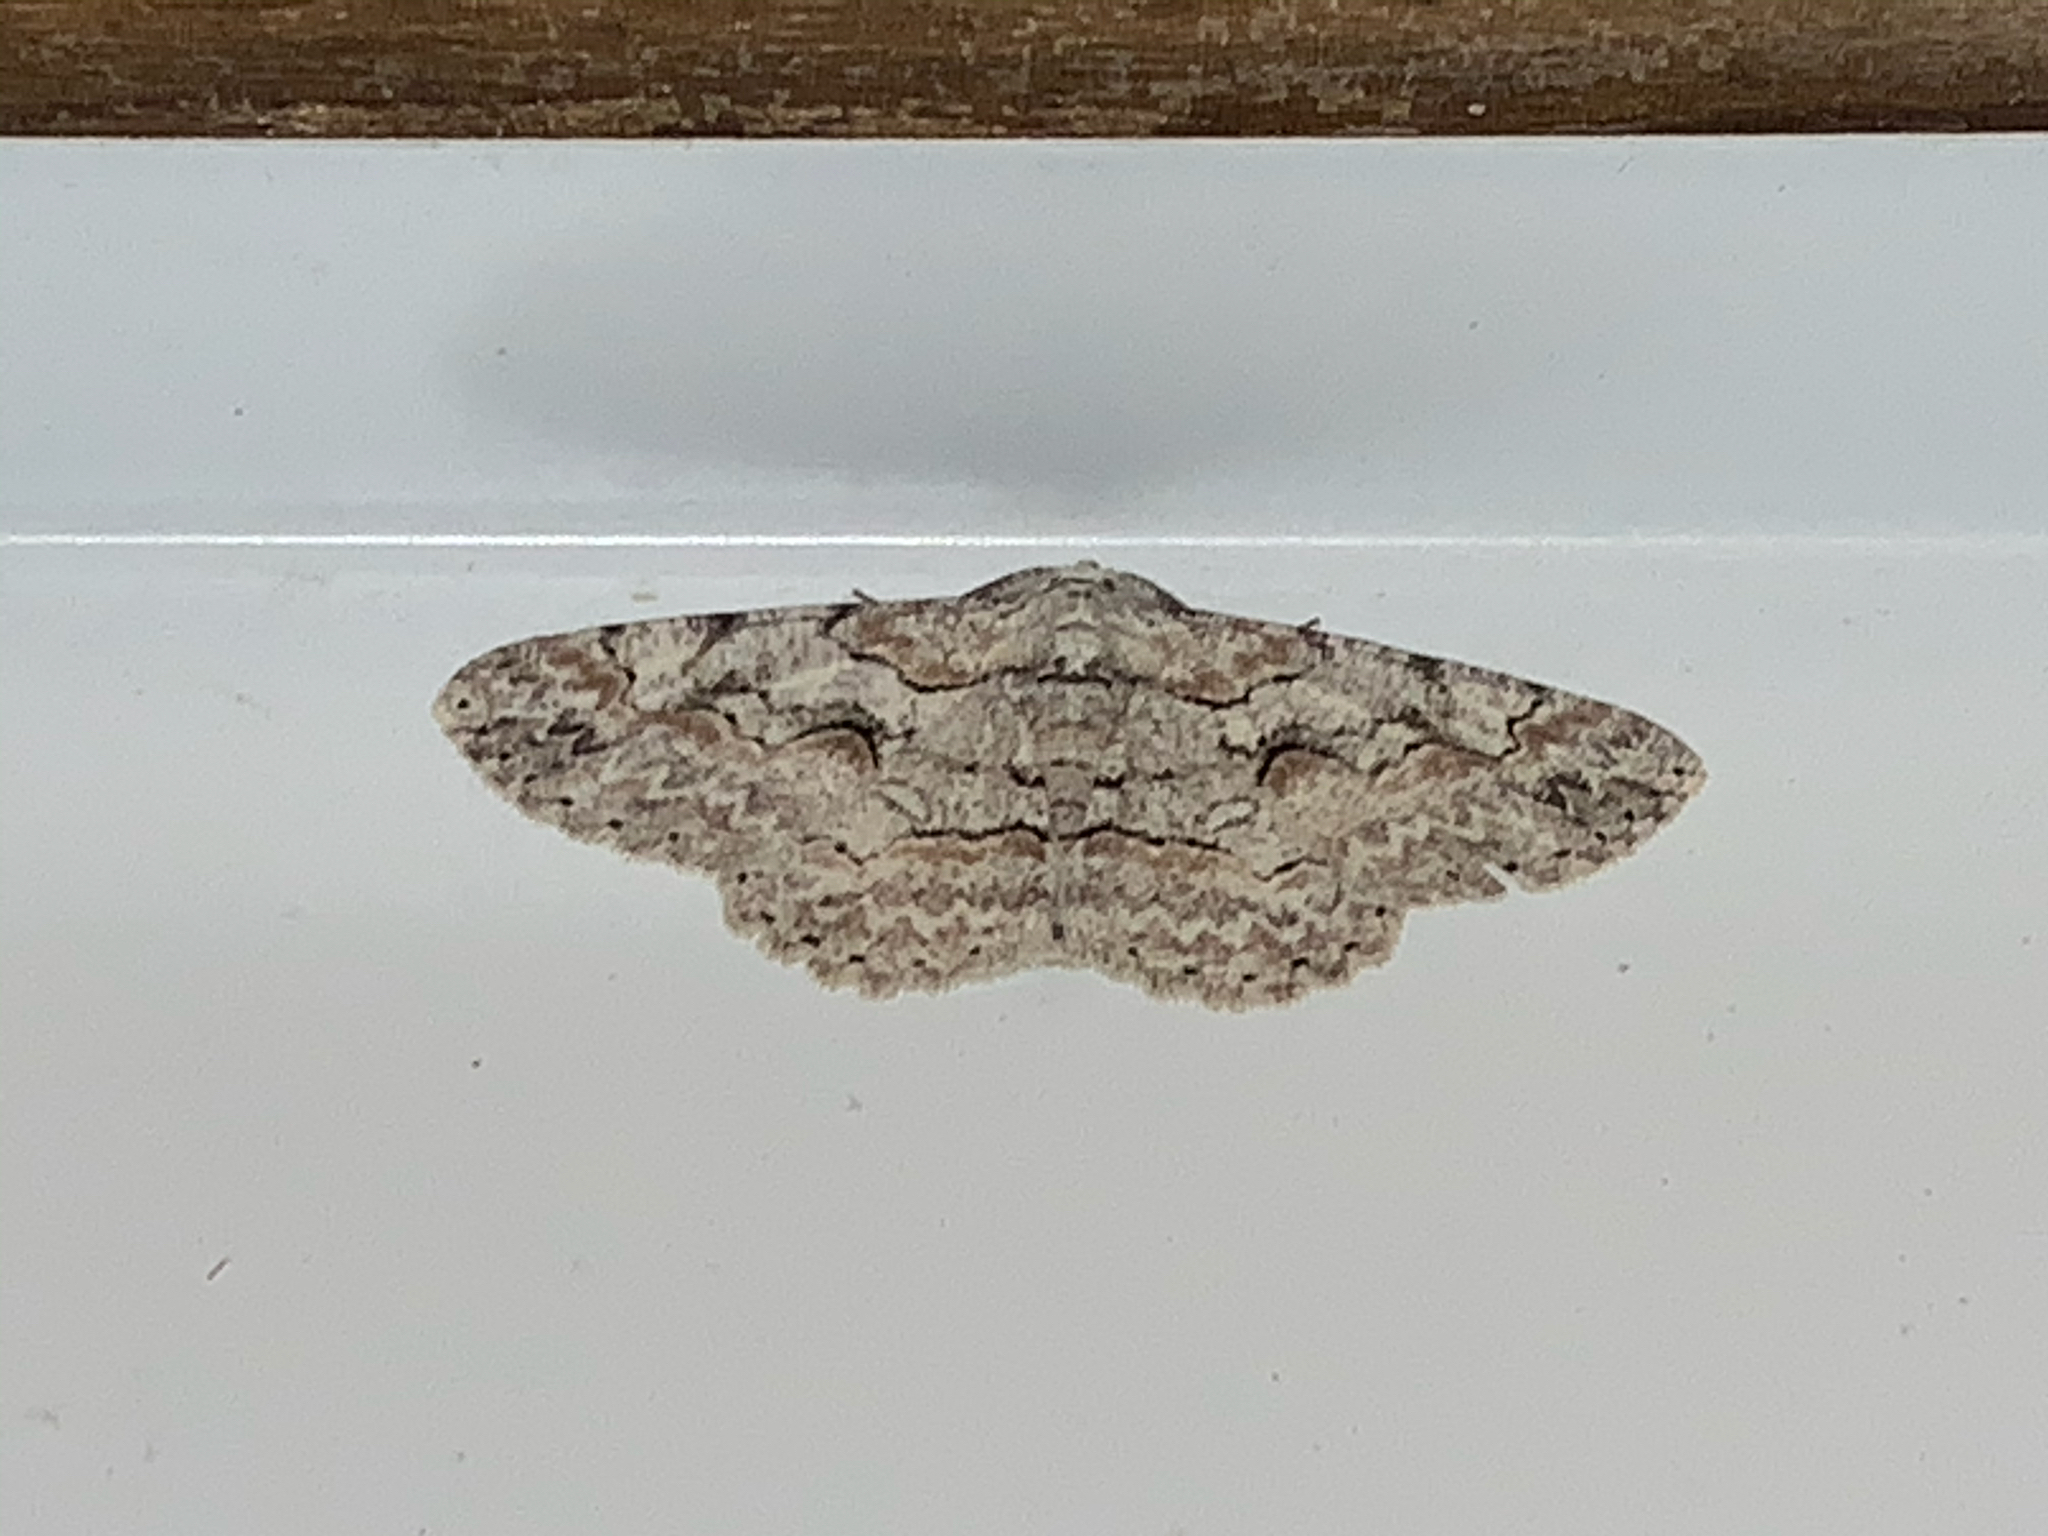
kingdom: Animalia
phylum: Arthropoda
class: Insecta
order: Lepidoptera
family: Geometridae
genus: Iridopsis
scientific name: Iridopsis defectaria
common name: Brown-shaded gray
